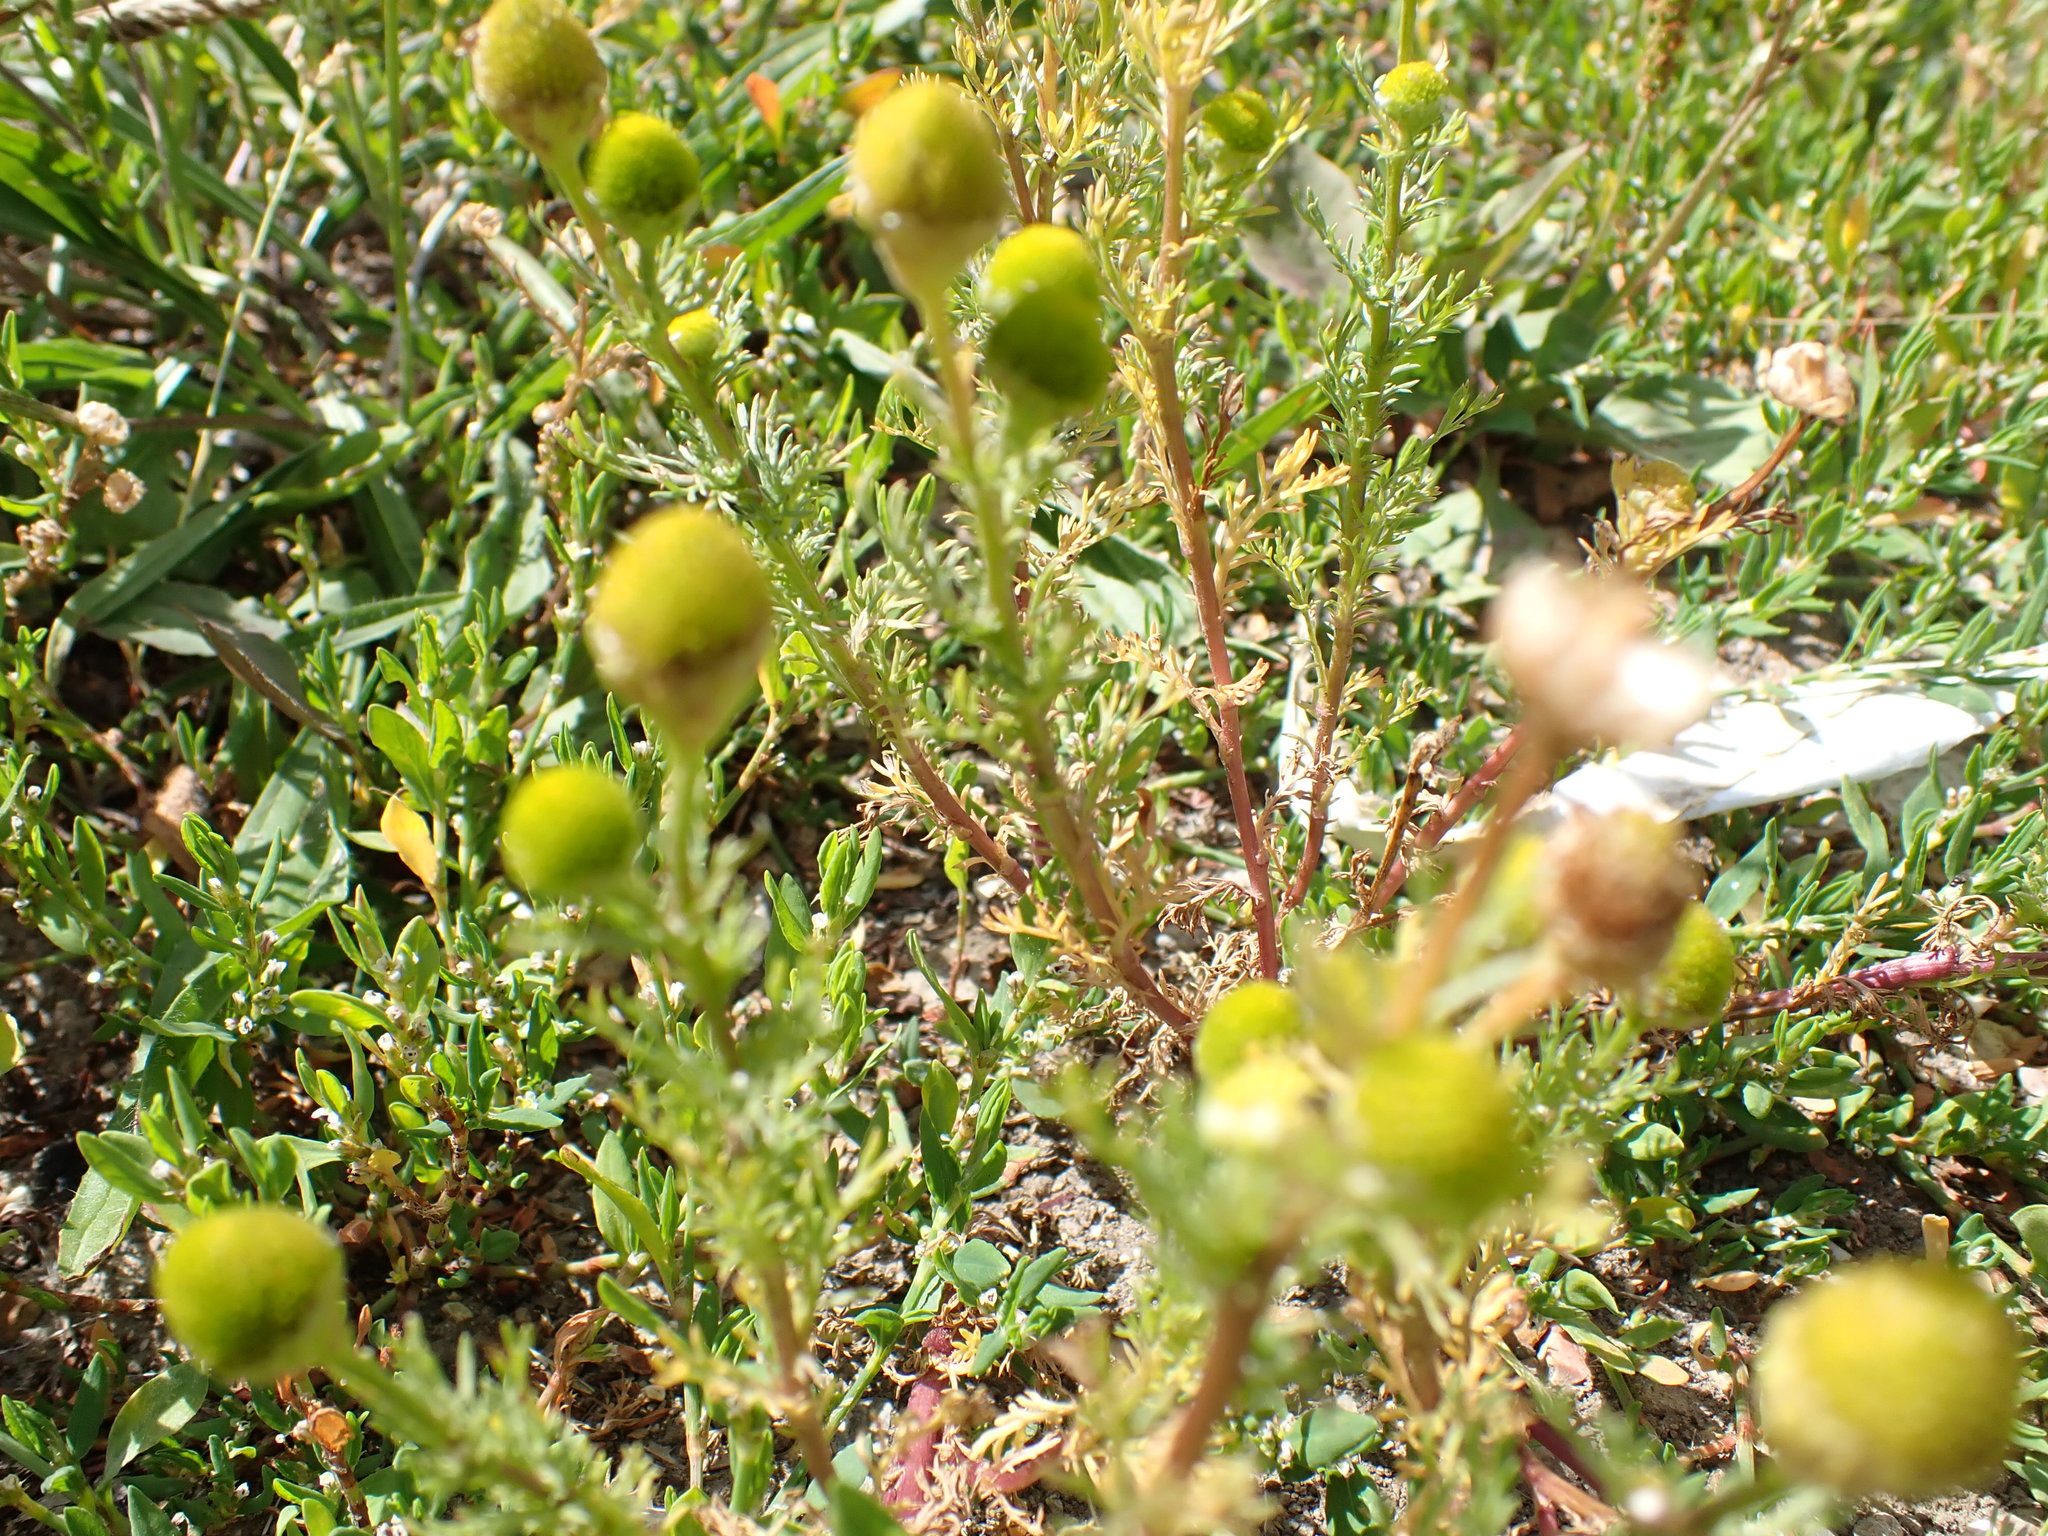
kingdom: Plantae
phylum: Tracheophyta
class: Magnoliopsida
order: Asterales
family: Asteraceae
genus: Matricaria
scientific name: Matricaria discoidea
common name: Disc mayweed
